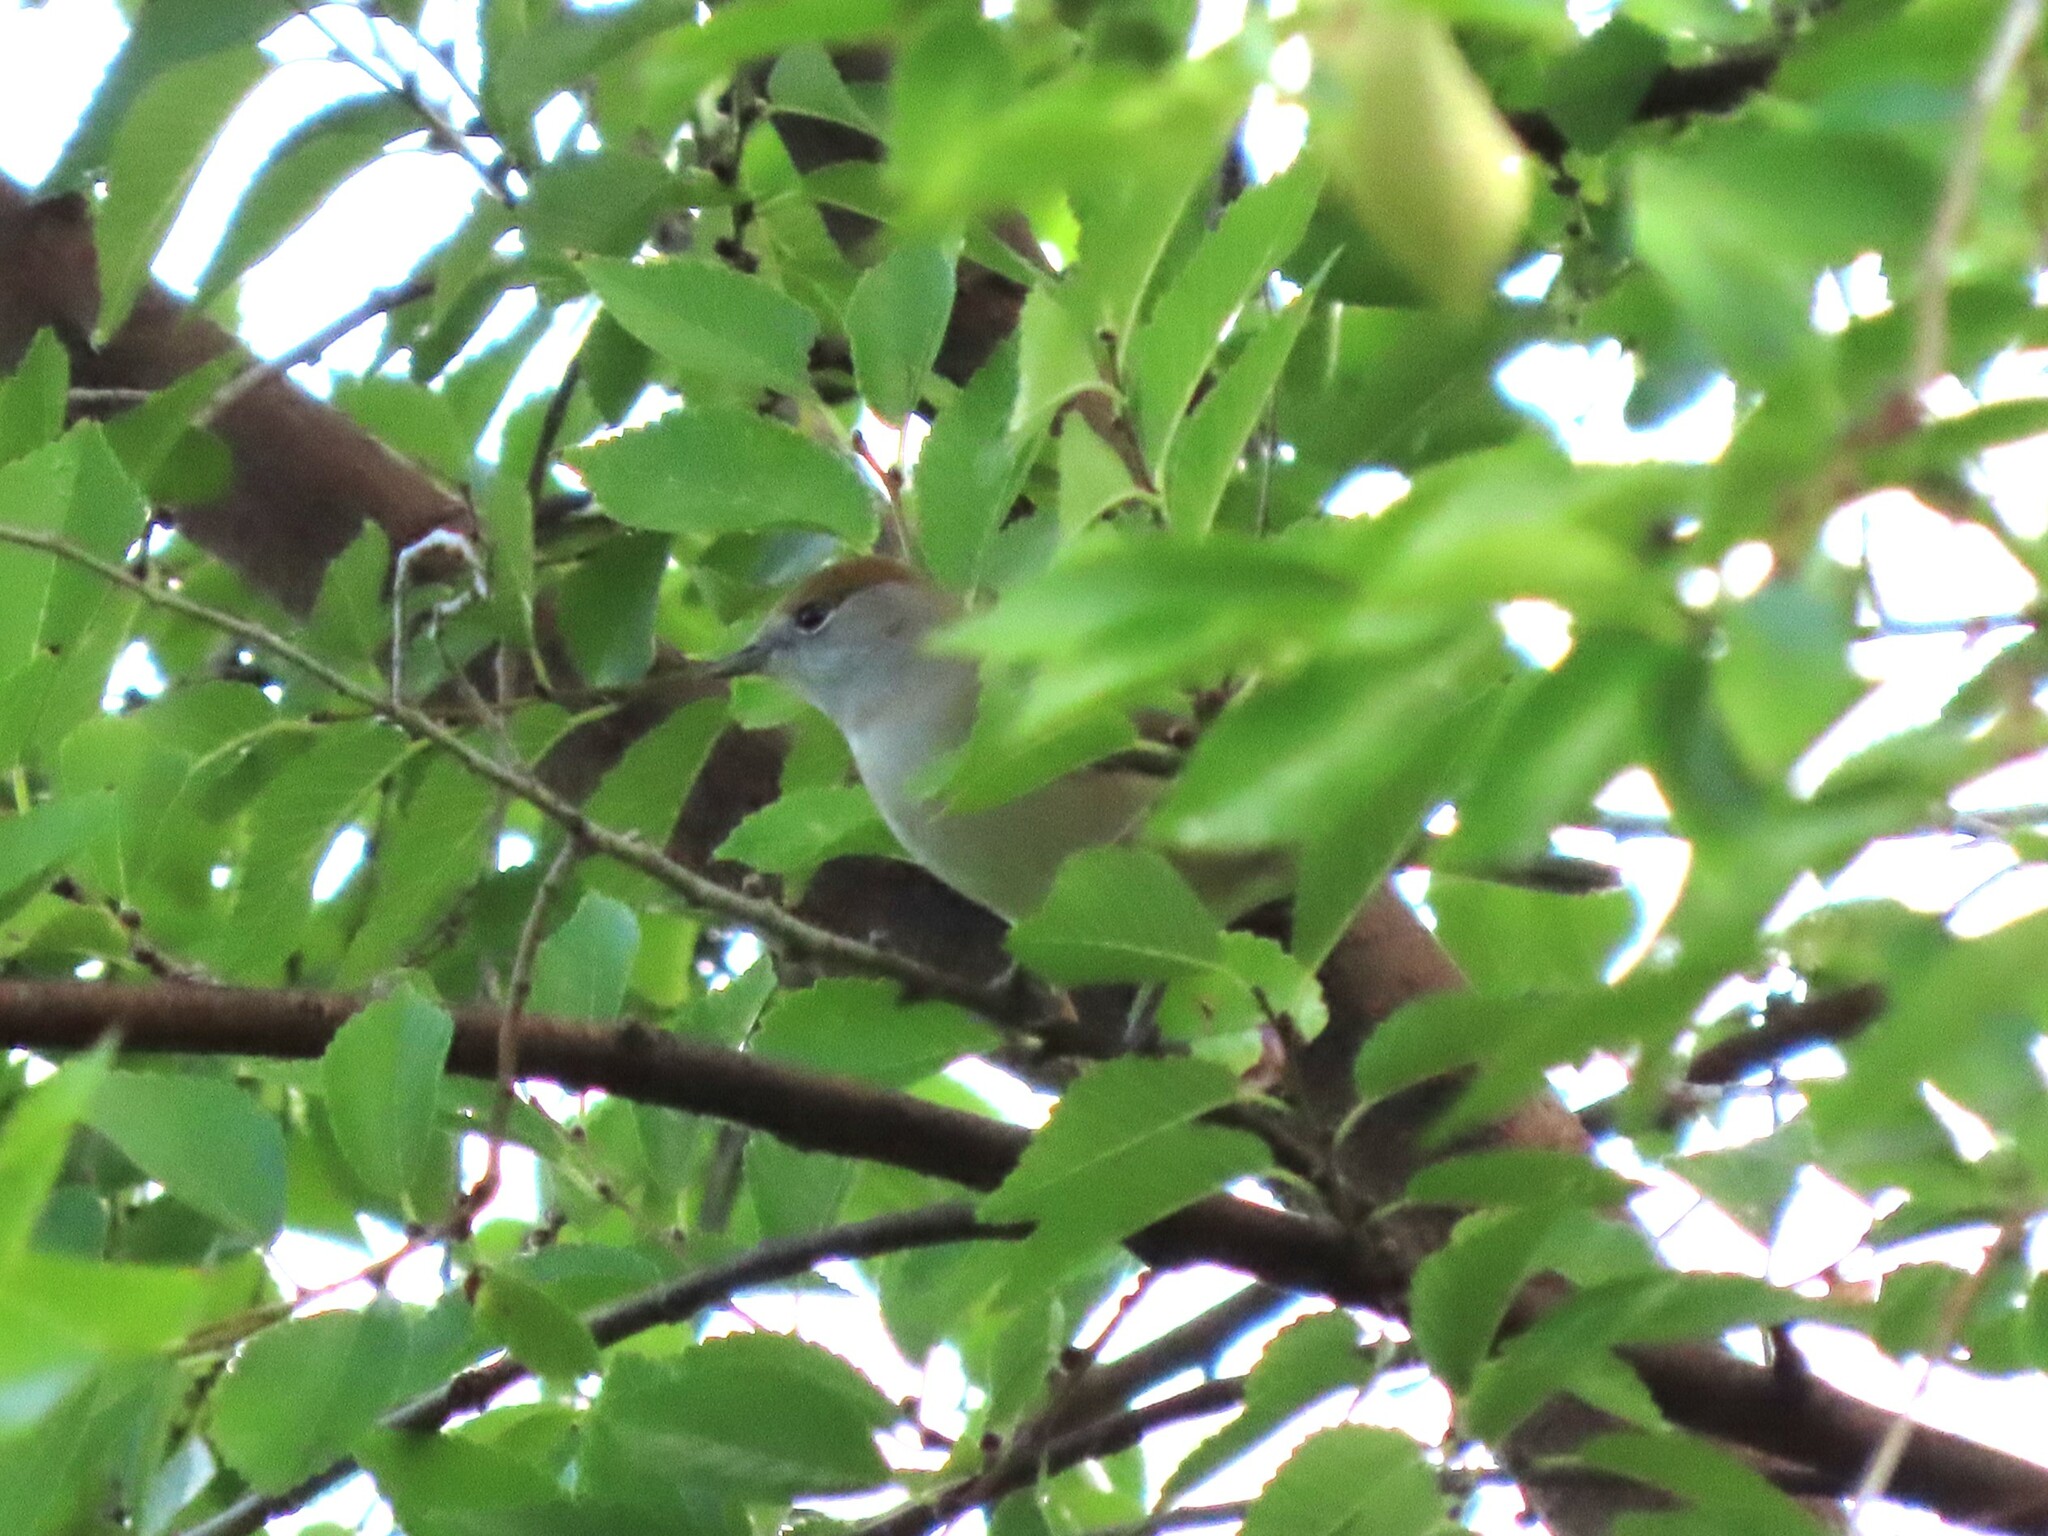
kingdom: Animalia
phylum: Chordata
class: Aves
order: Passeriformes
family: Sylviidae
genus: Sylvia
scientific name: Sylvia atricapilla
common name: Eurasian blackcap
